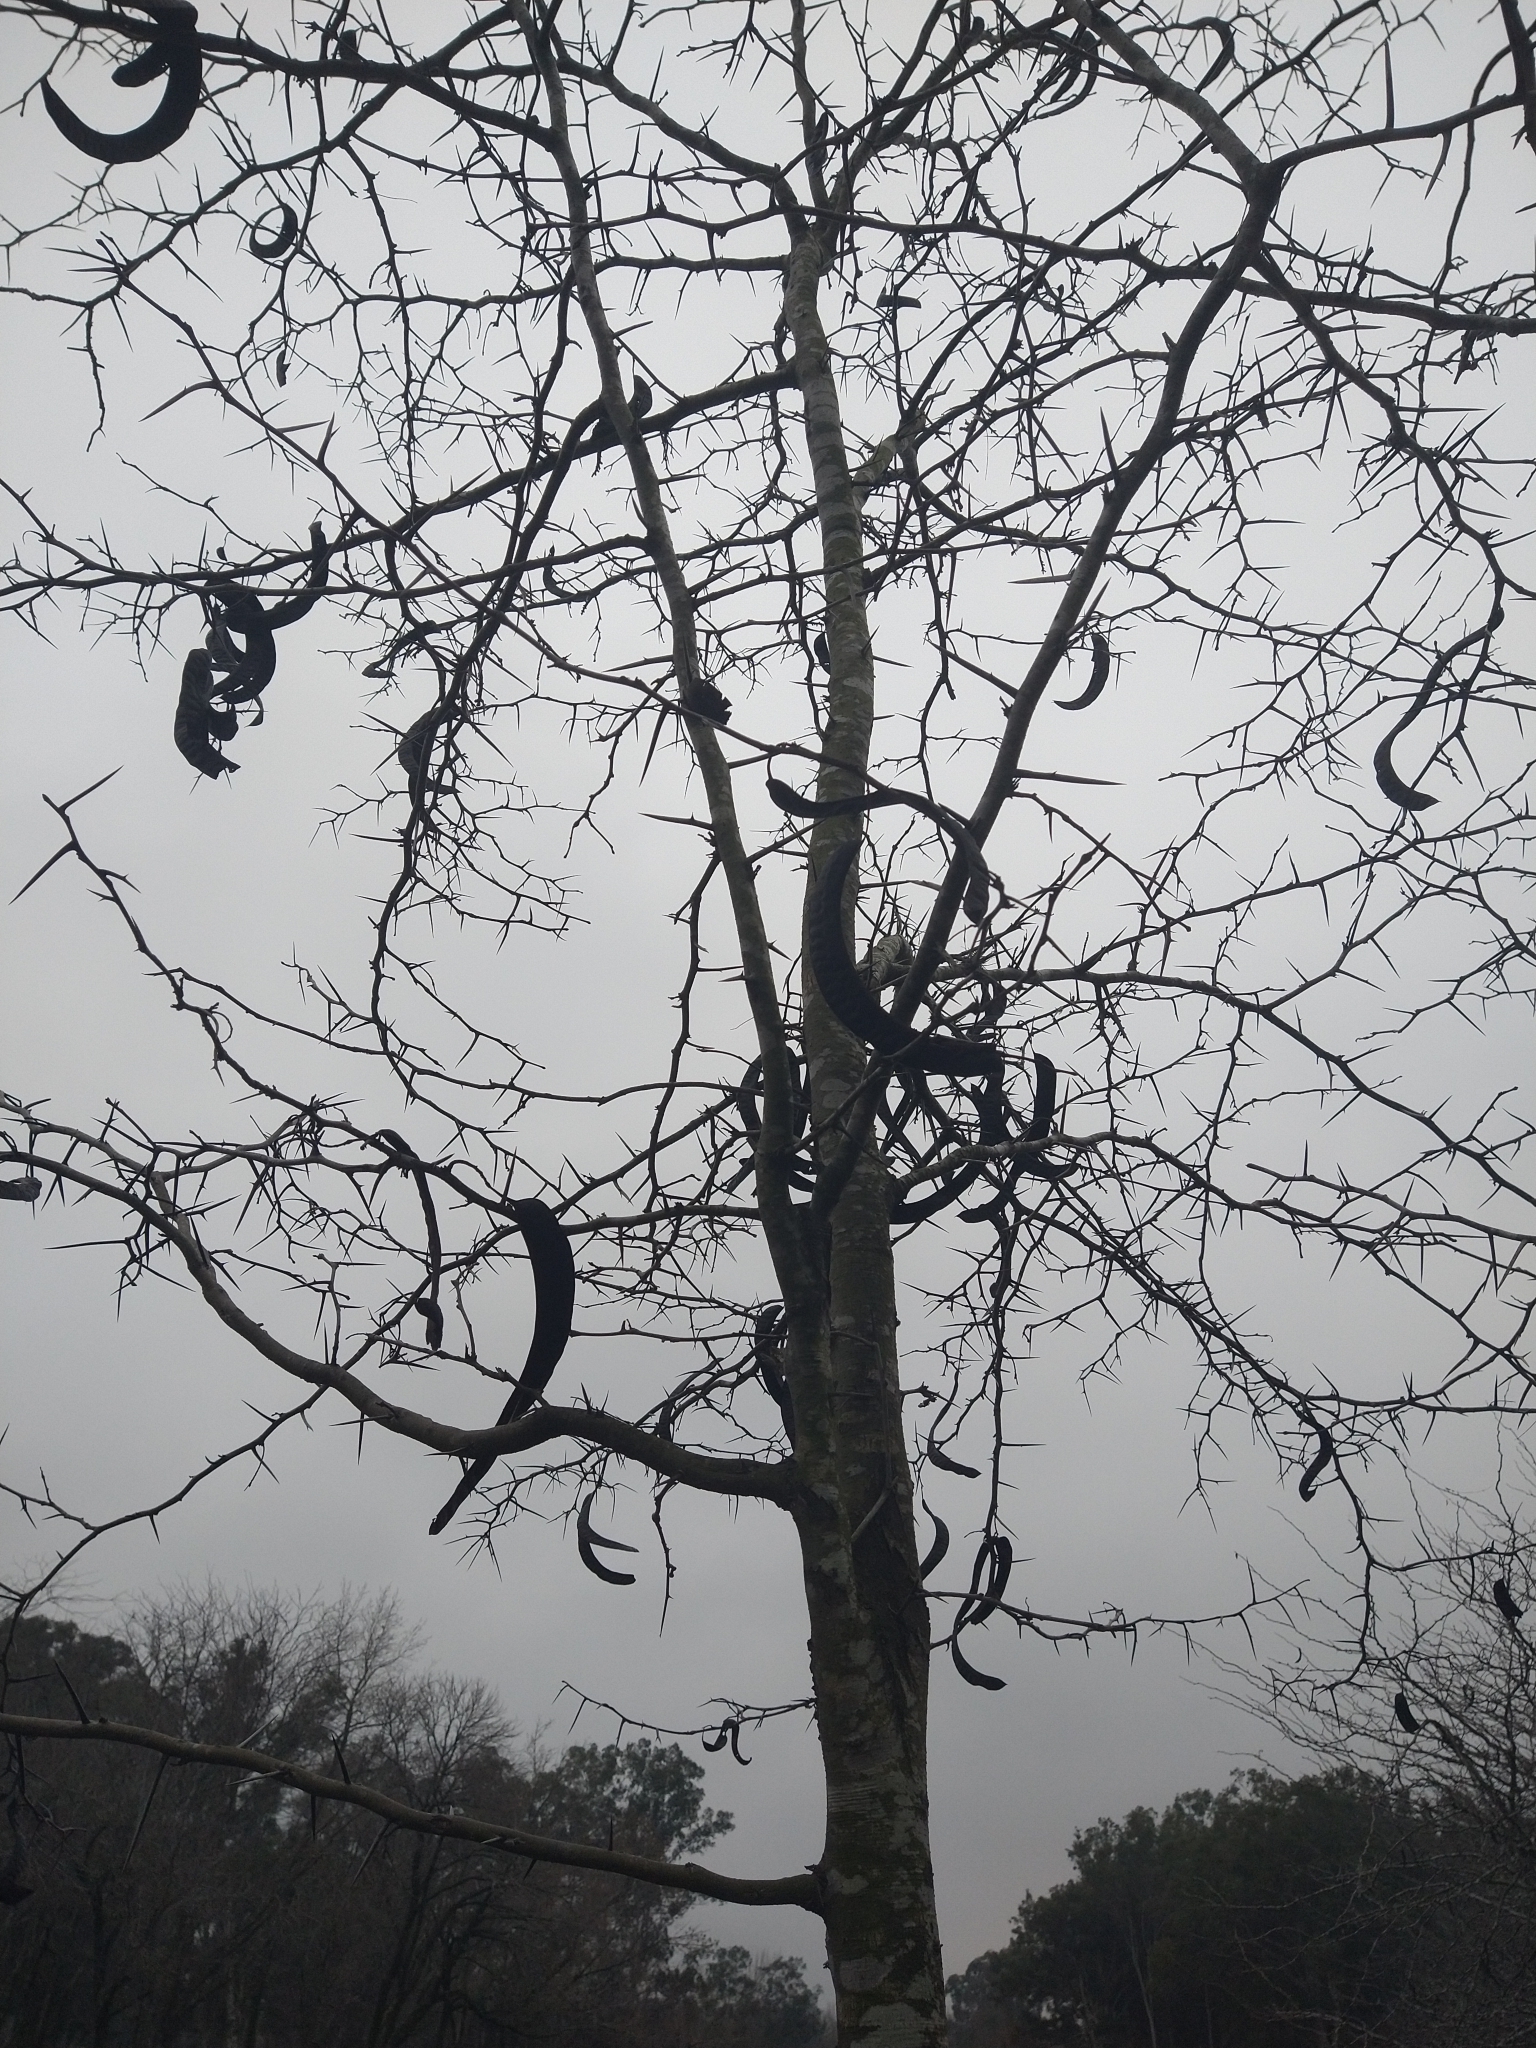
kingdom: Plantae
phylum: Tracheophyta
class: Magnoliopsida
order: Fabales
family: Fabaceae
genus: Gleditsia
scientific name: Gleditsia triacanthos
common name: Common honeylocust
